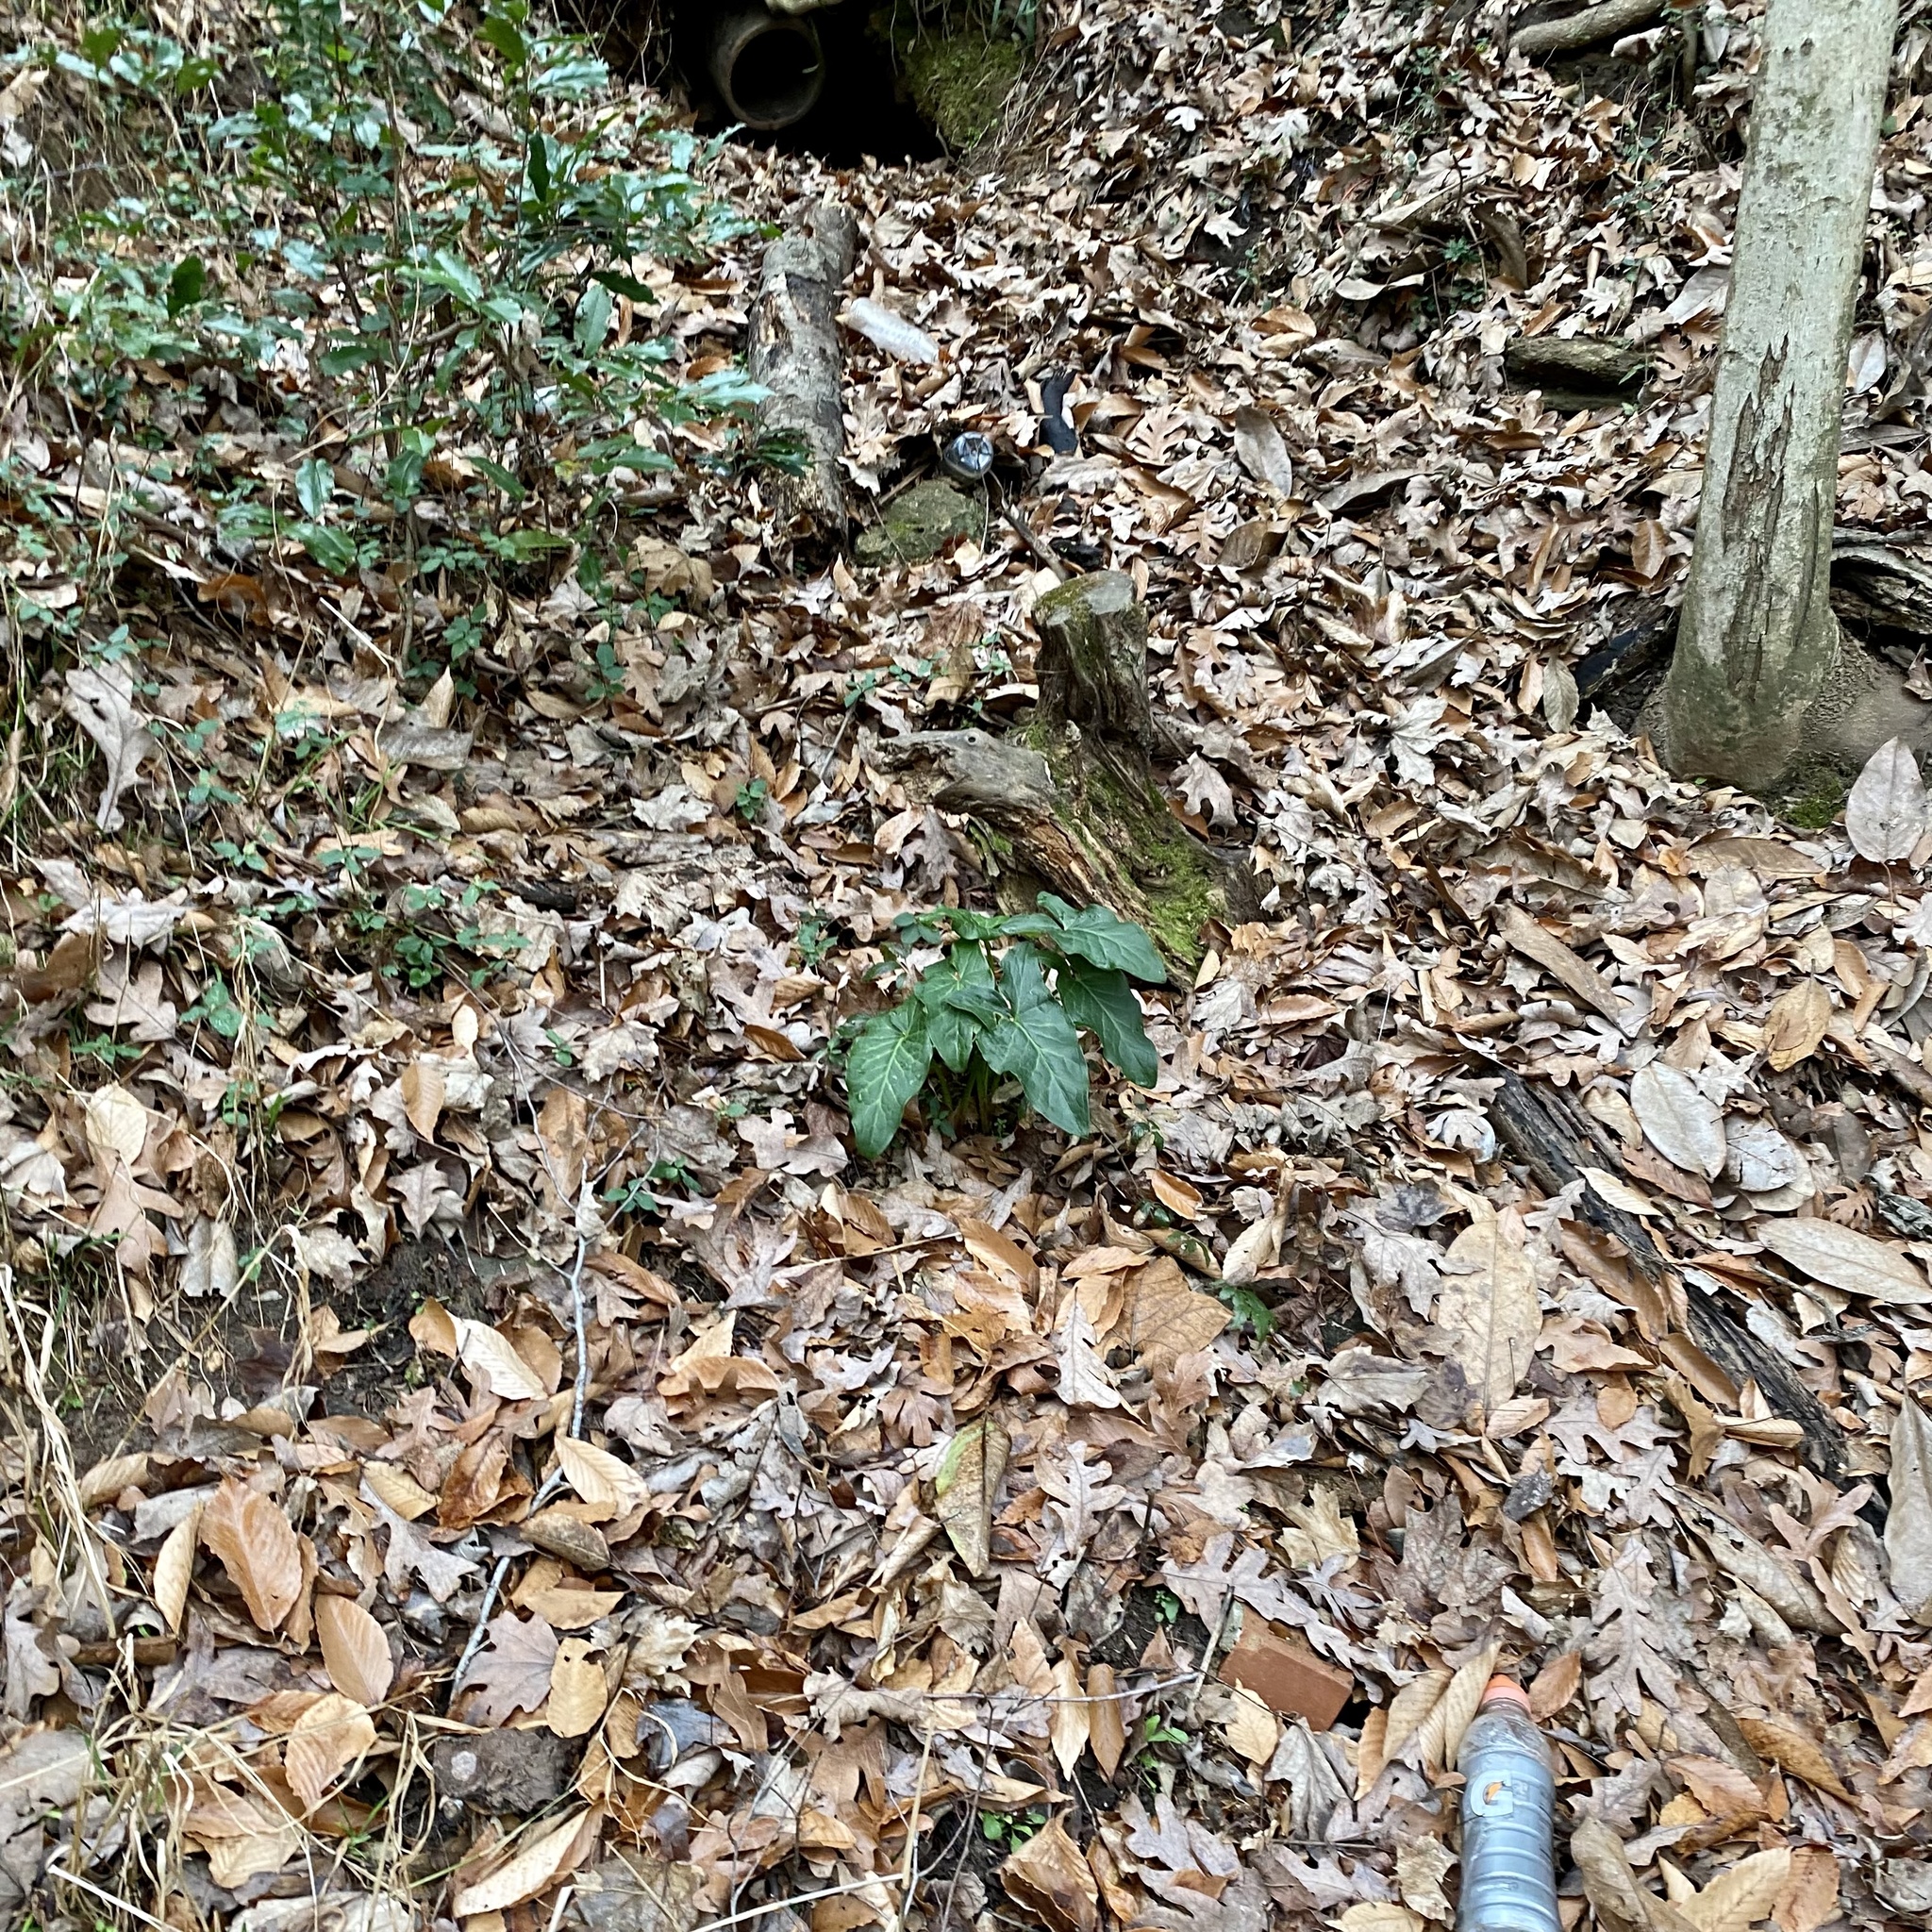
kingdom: Plantae
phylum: Tracheophyta
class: Liliopsida
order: Alismatales
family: Araceae
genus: Arum
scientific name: Arum italicum
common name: Italian lords-and-ladies
